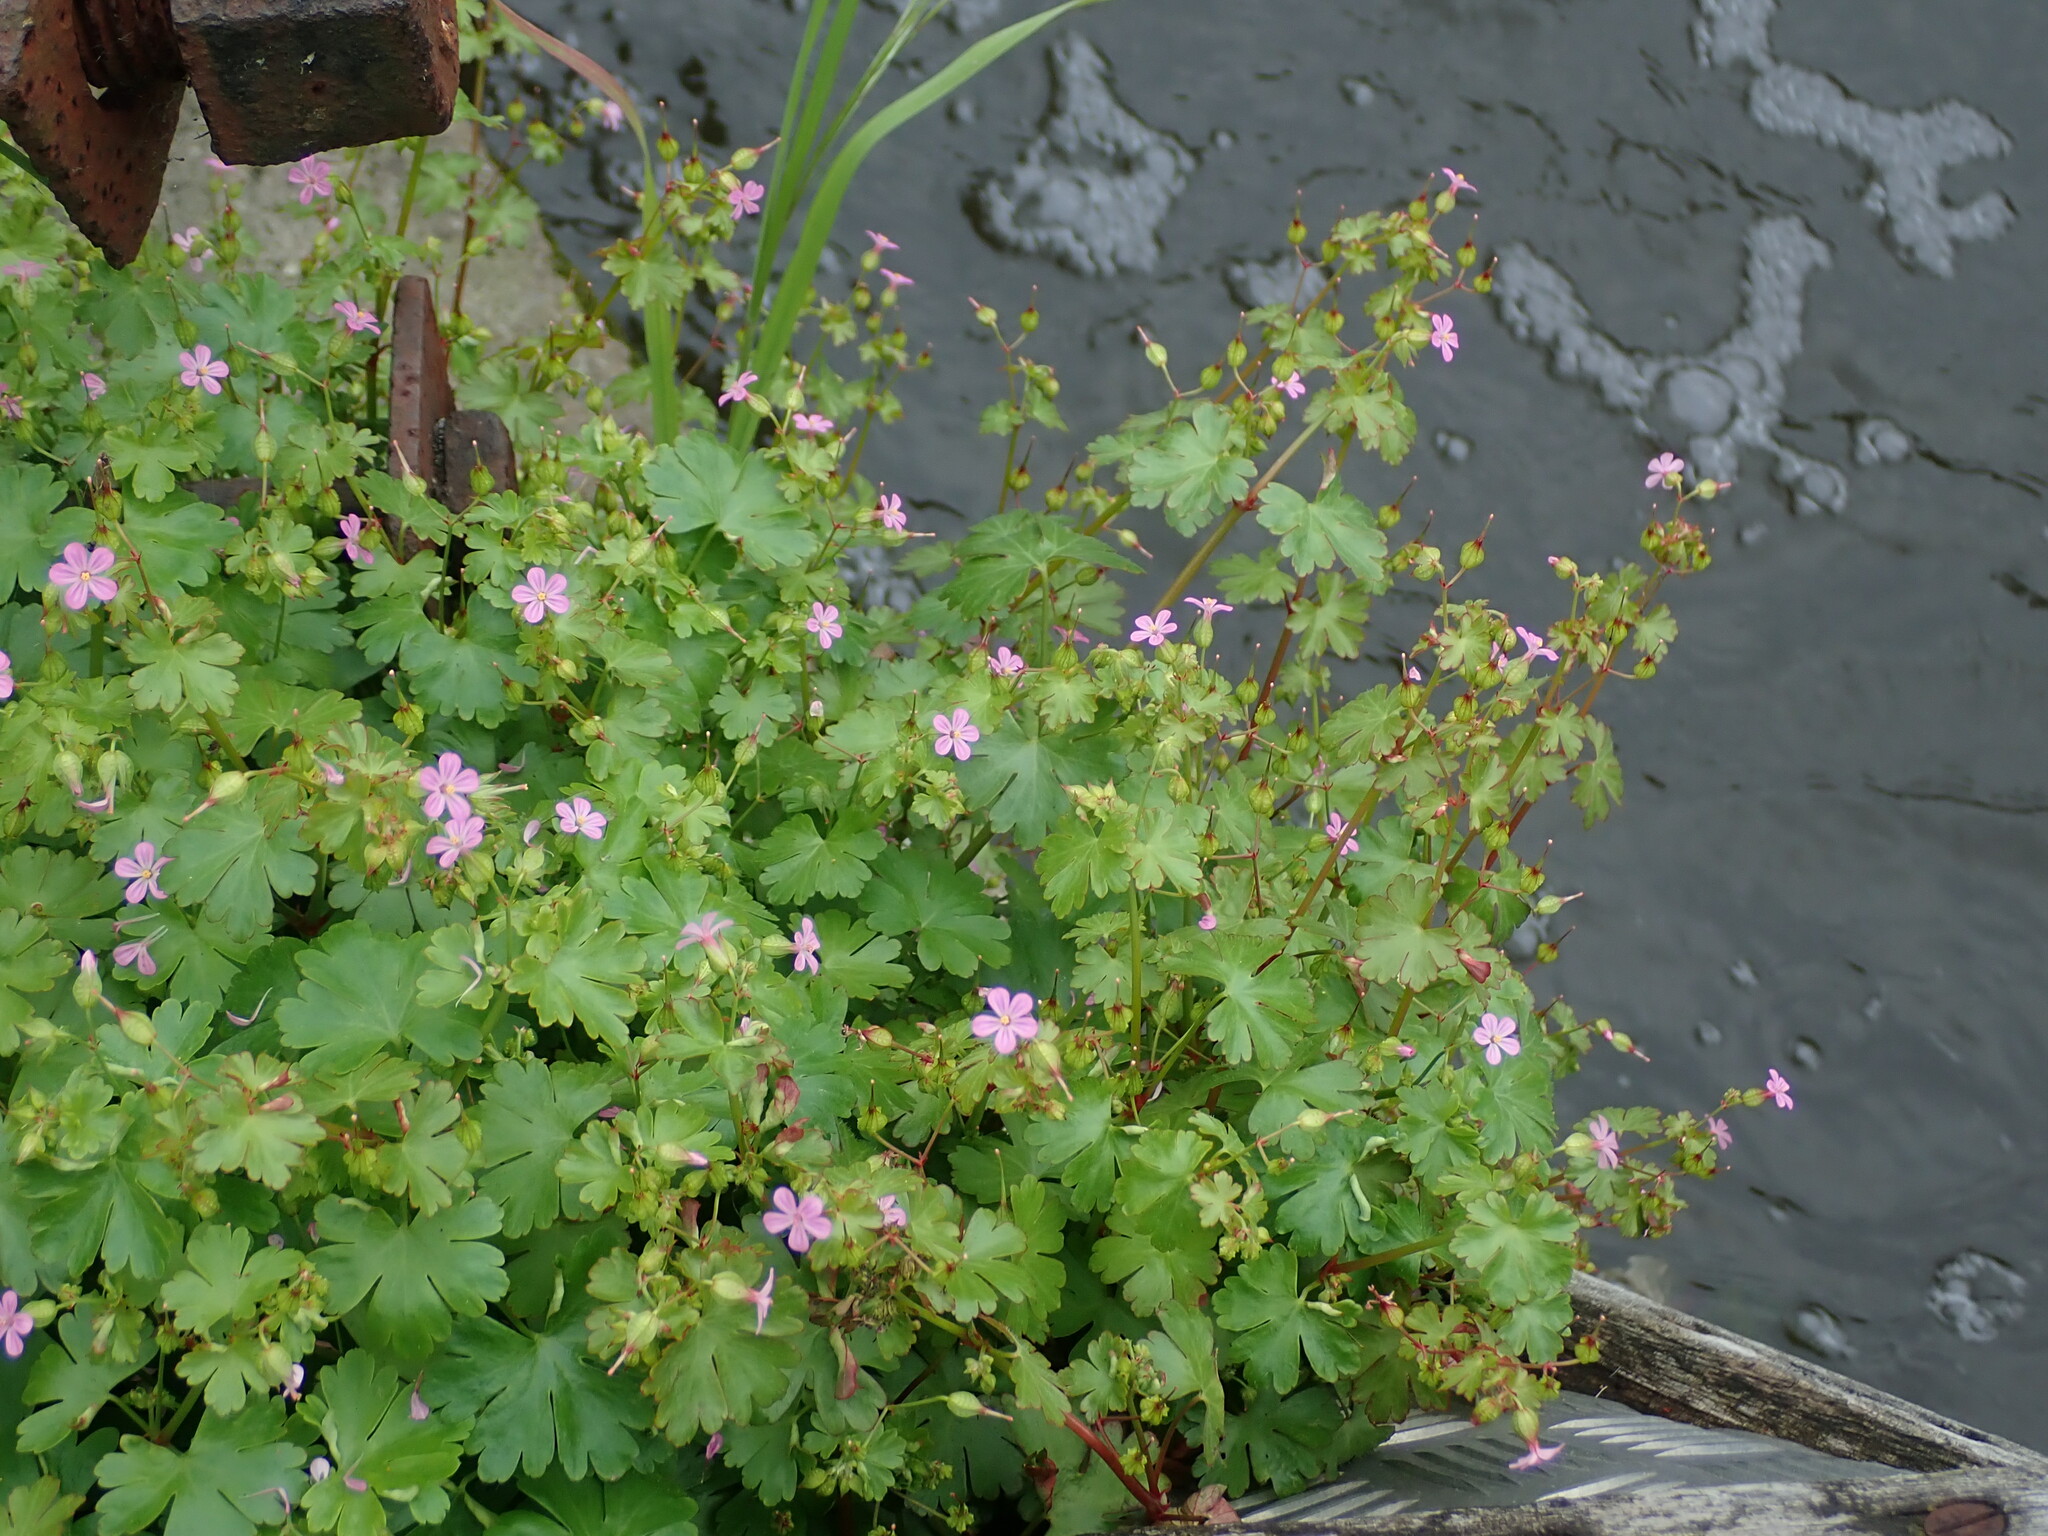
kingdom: Plantae
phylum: Tracheophyta
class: Magnoliopsida
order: Geraniales
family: Geraniaceae
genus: Geranium
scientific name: Geranium lucidum
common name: Shining crane's-bill
